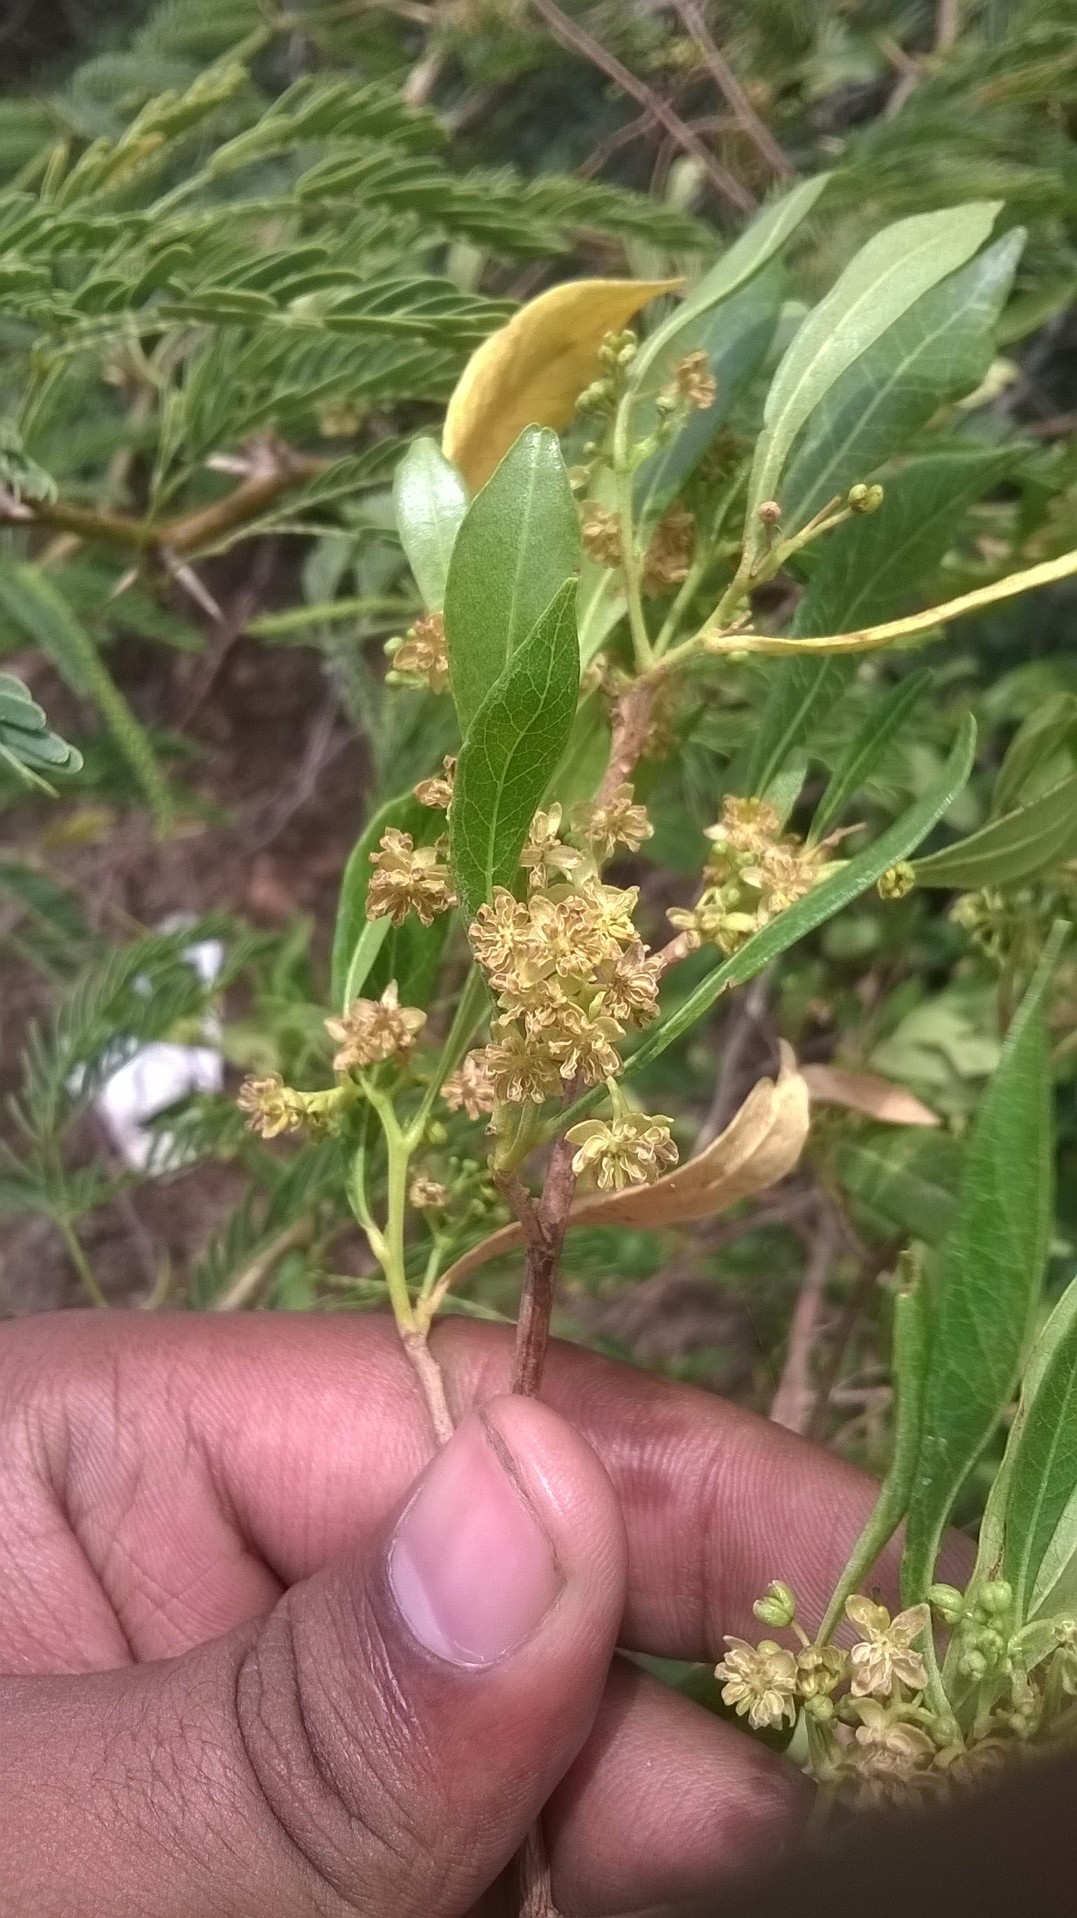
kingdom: Plantae
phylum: Tracheophyta
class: Magnoliopsida
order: Sapindales
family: Sapindaceae
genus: Dodonaea
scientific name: Dodonaea viscosa
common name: Hopbush
